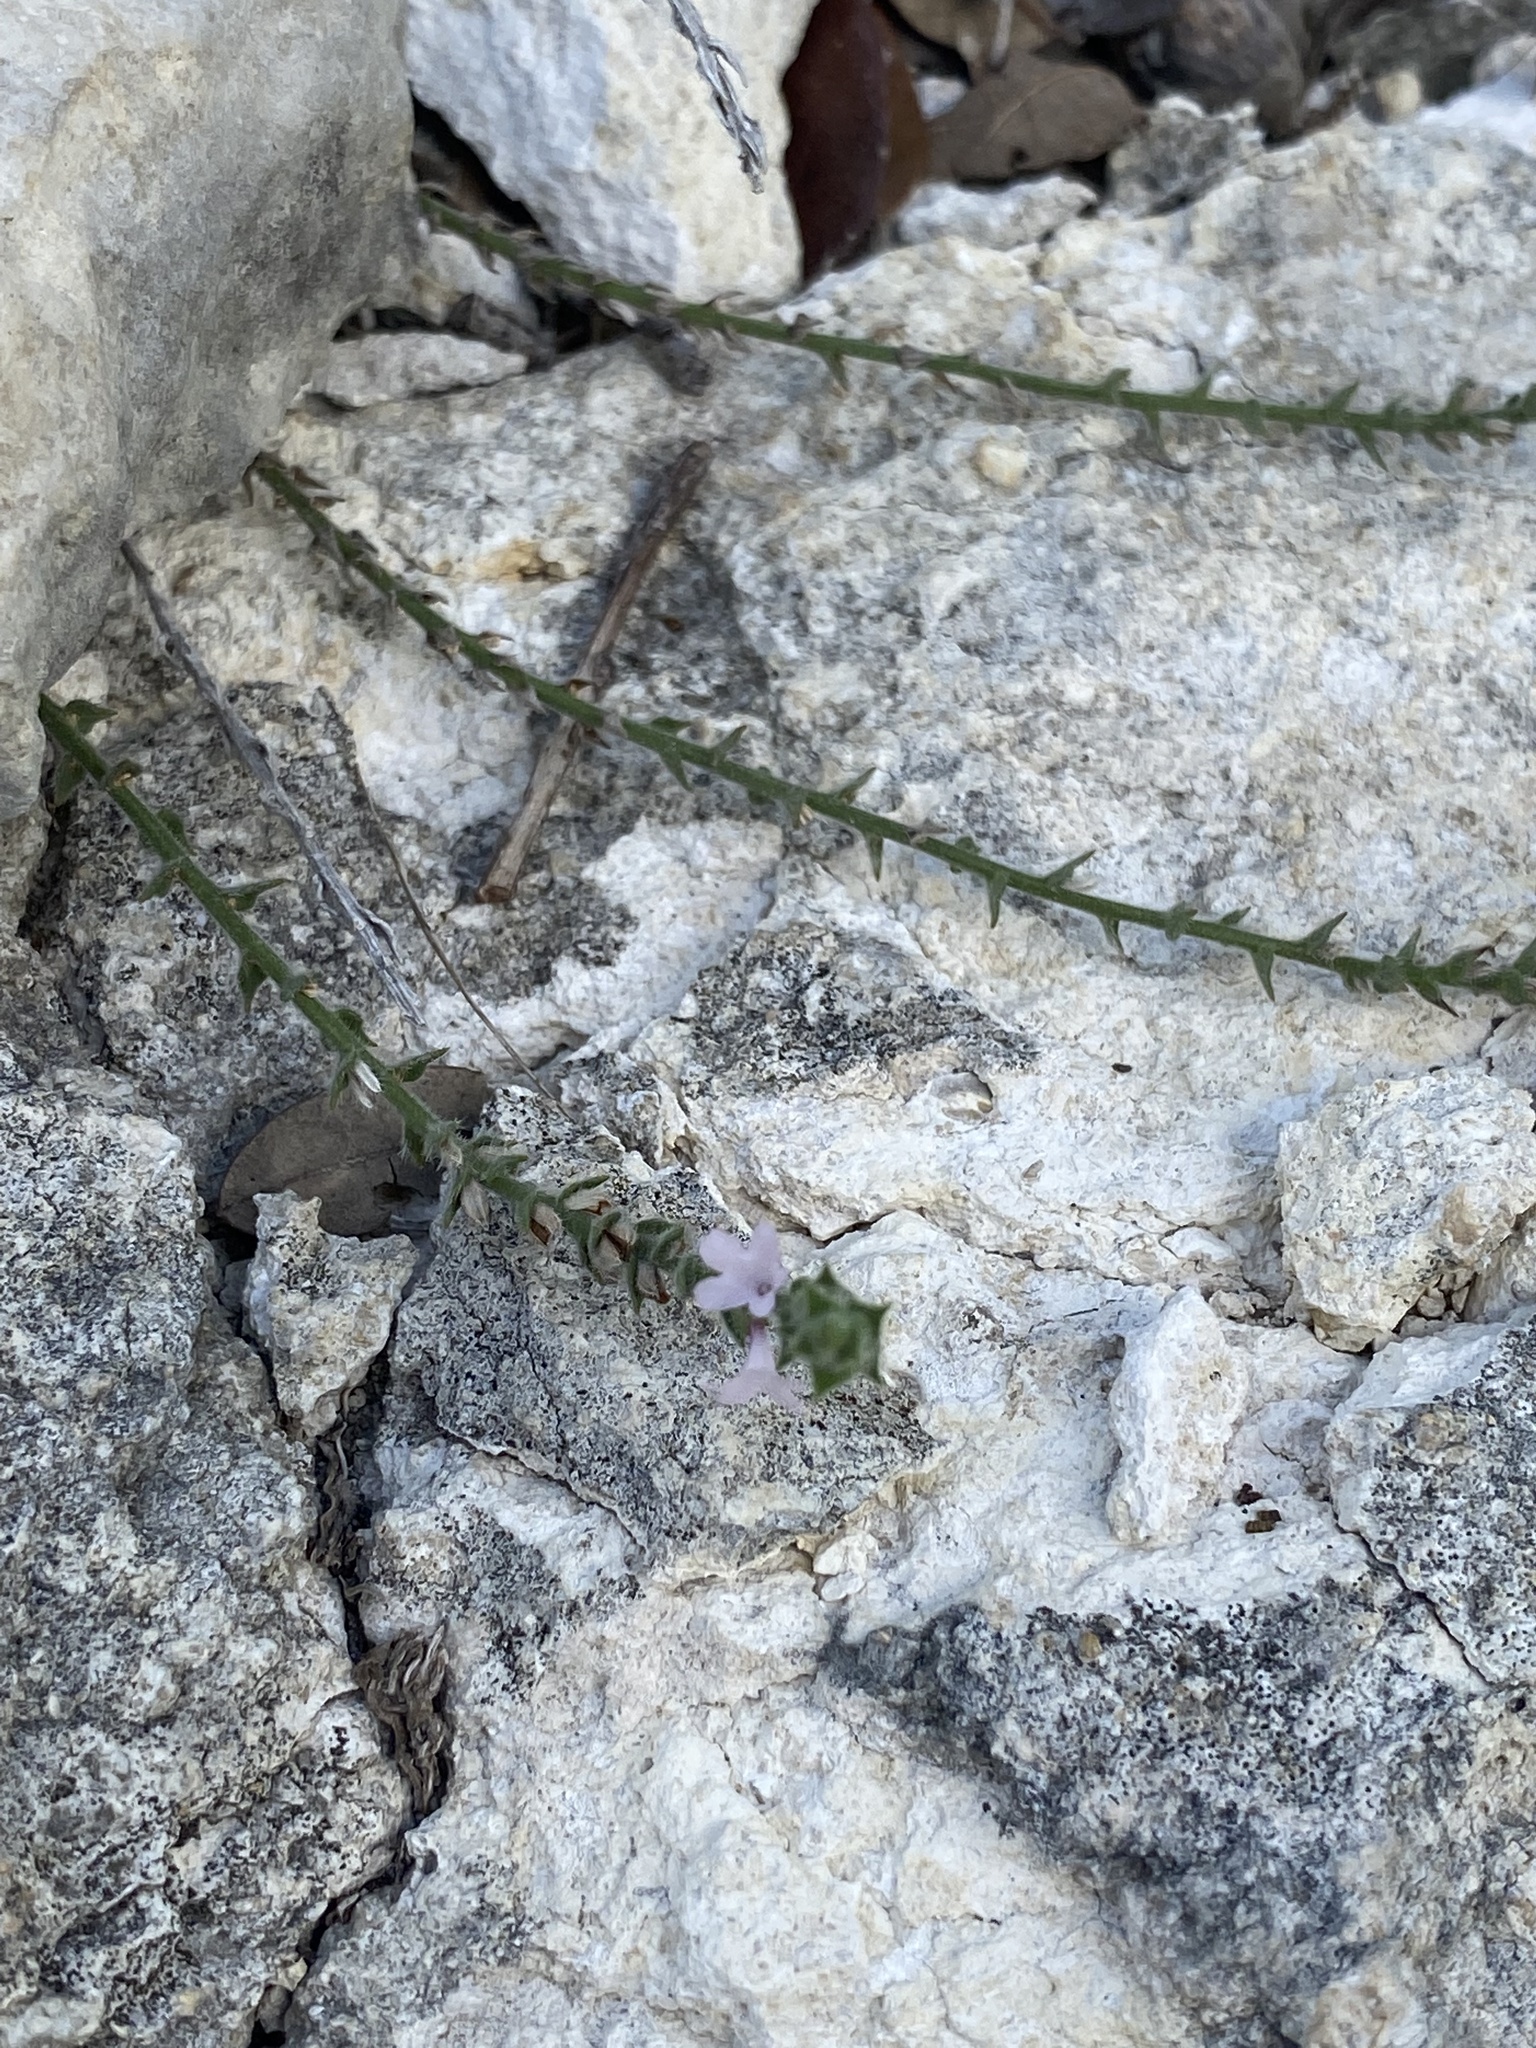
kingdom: Plantae
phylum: Tracheophyta
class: Magnoliopsida
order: Lamiales
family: Verbenaceae
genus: Verbena
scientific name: Verbena canescens
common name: Gray vervain
